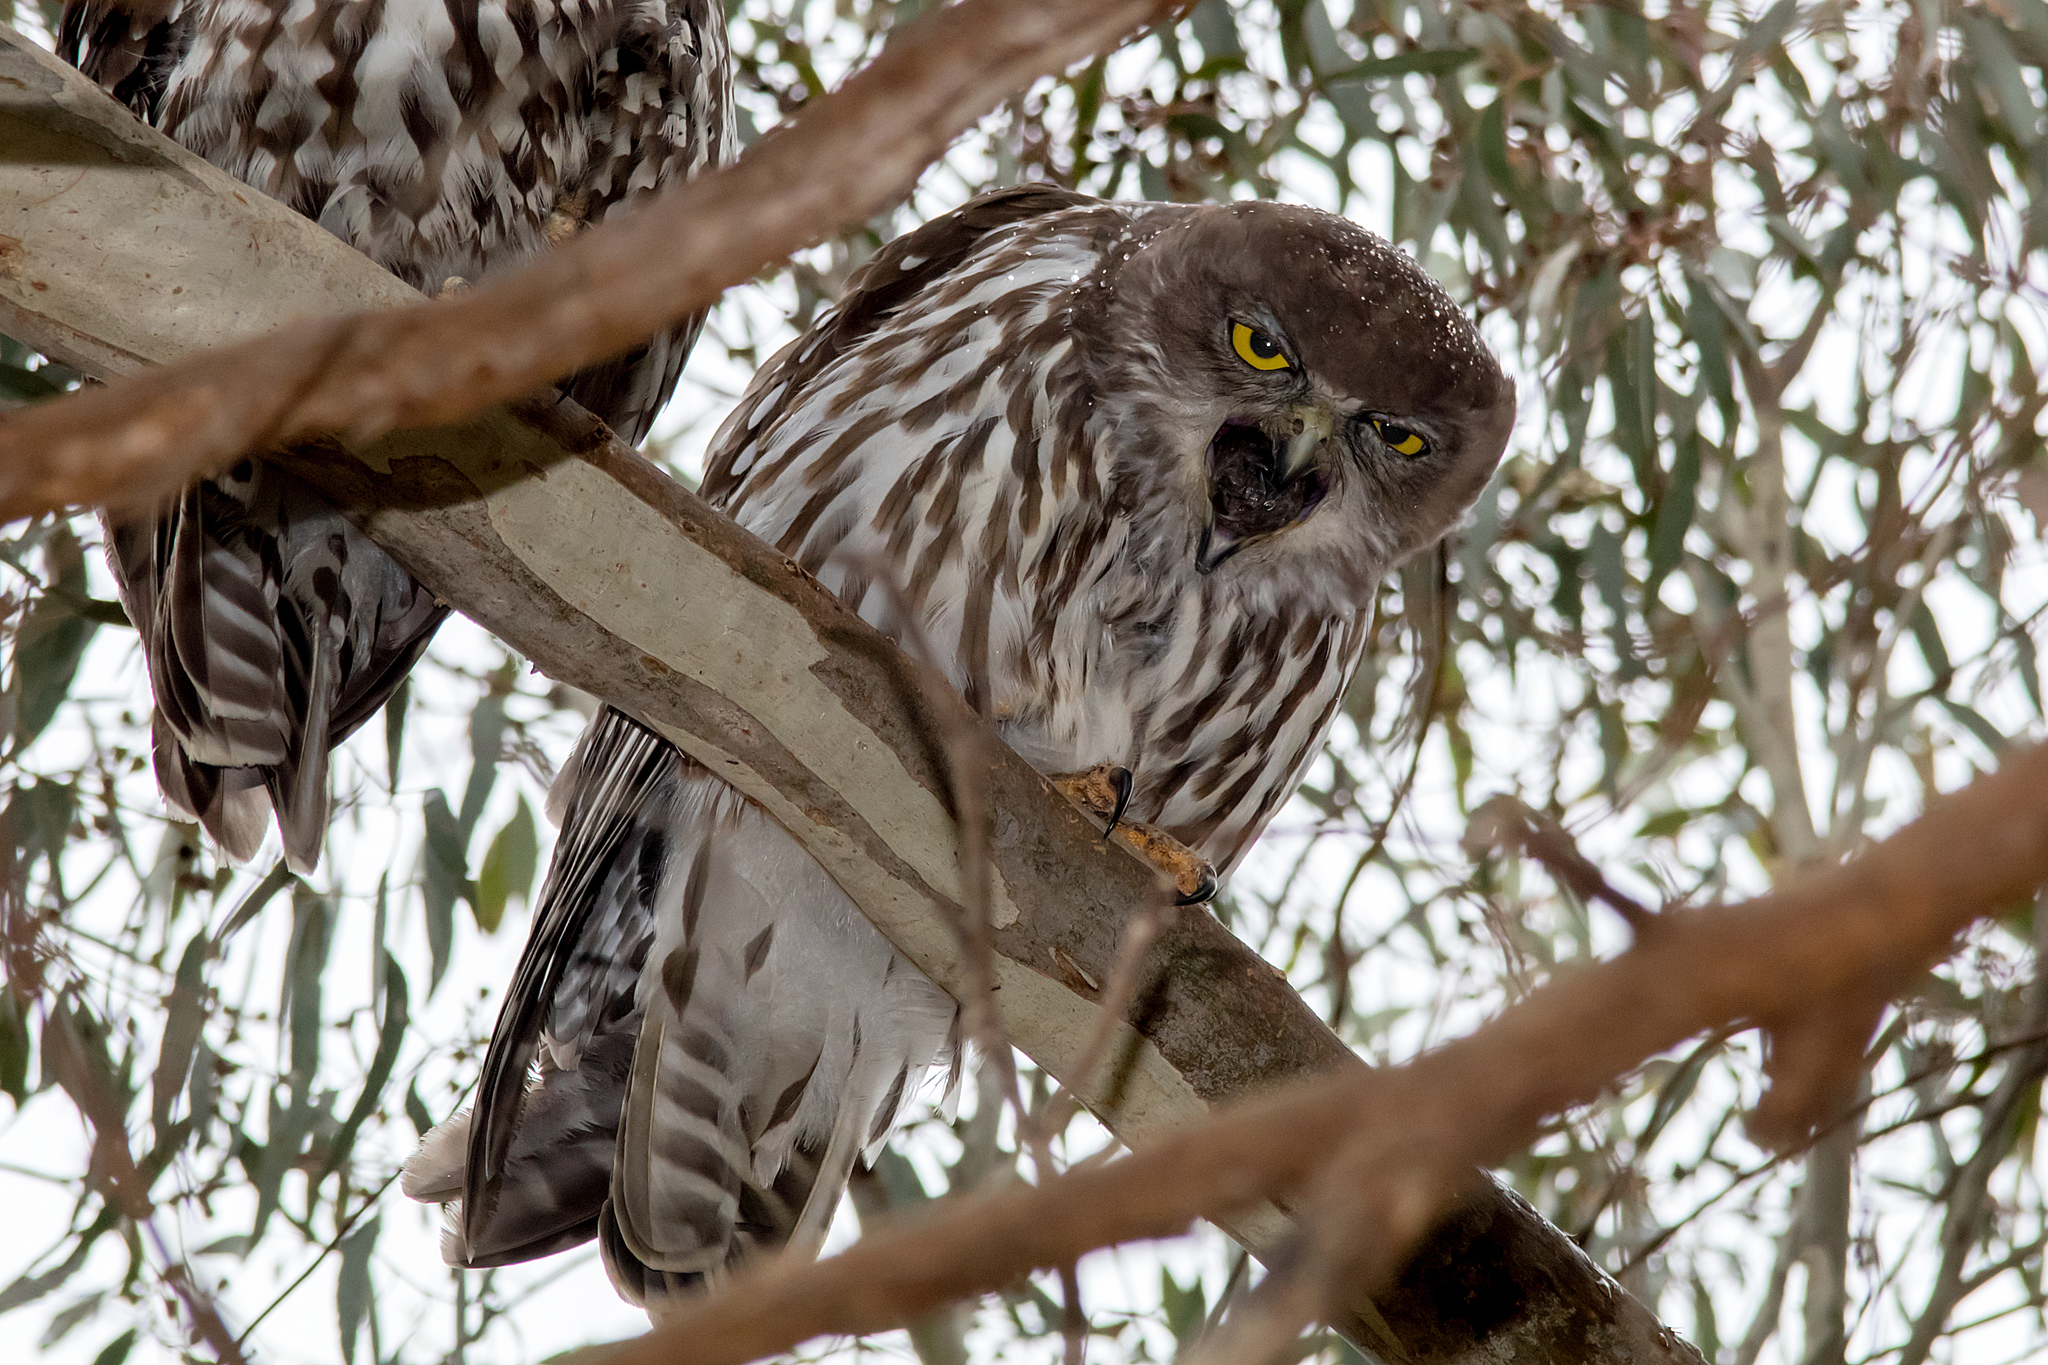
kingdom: Animalia
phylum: Chordata
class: Aves
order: Strigiformes
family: Strigidae
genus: Ninox
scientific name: Ninox connivens
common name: Barking owl
